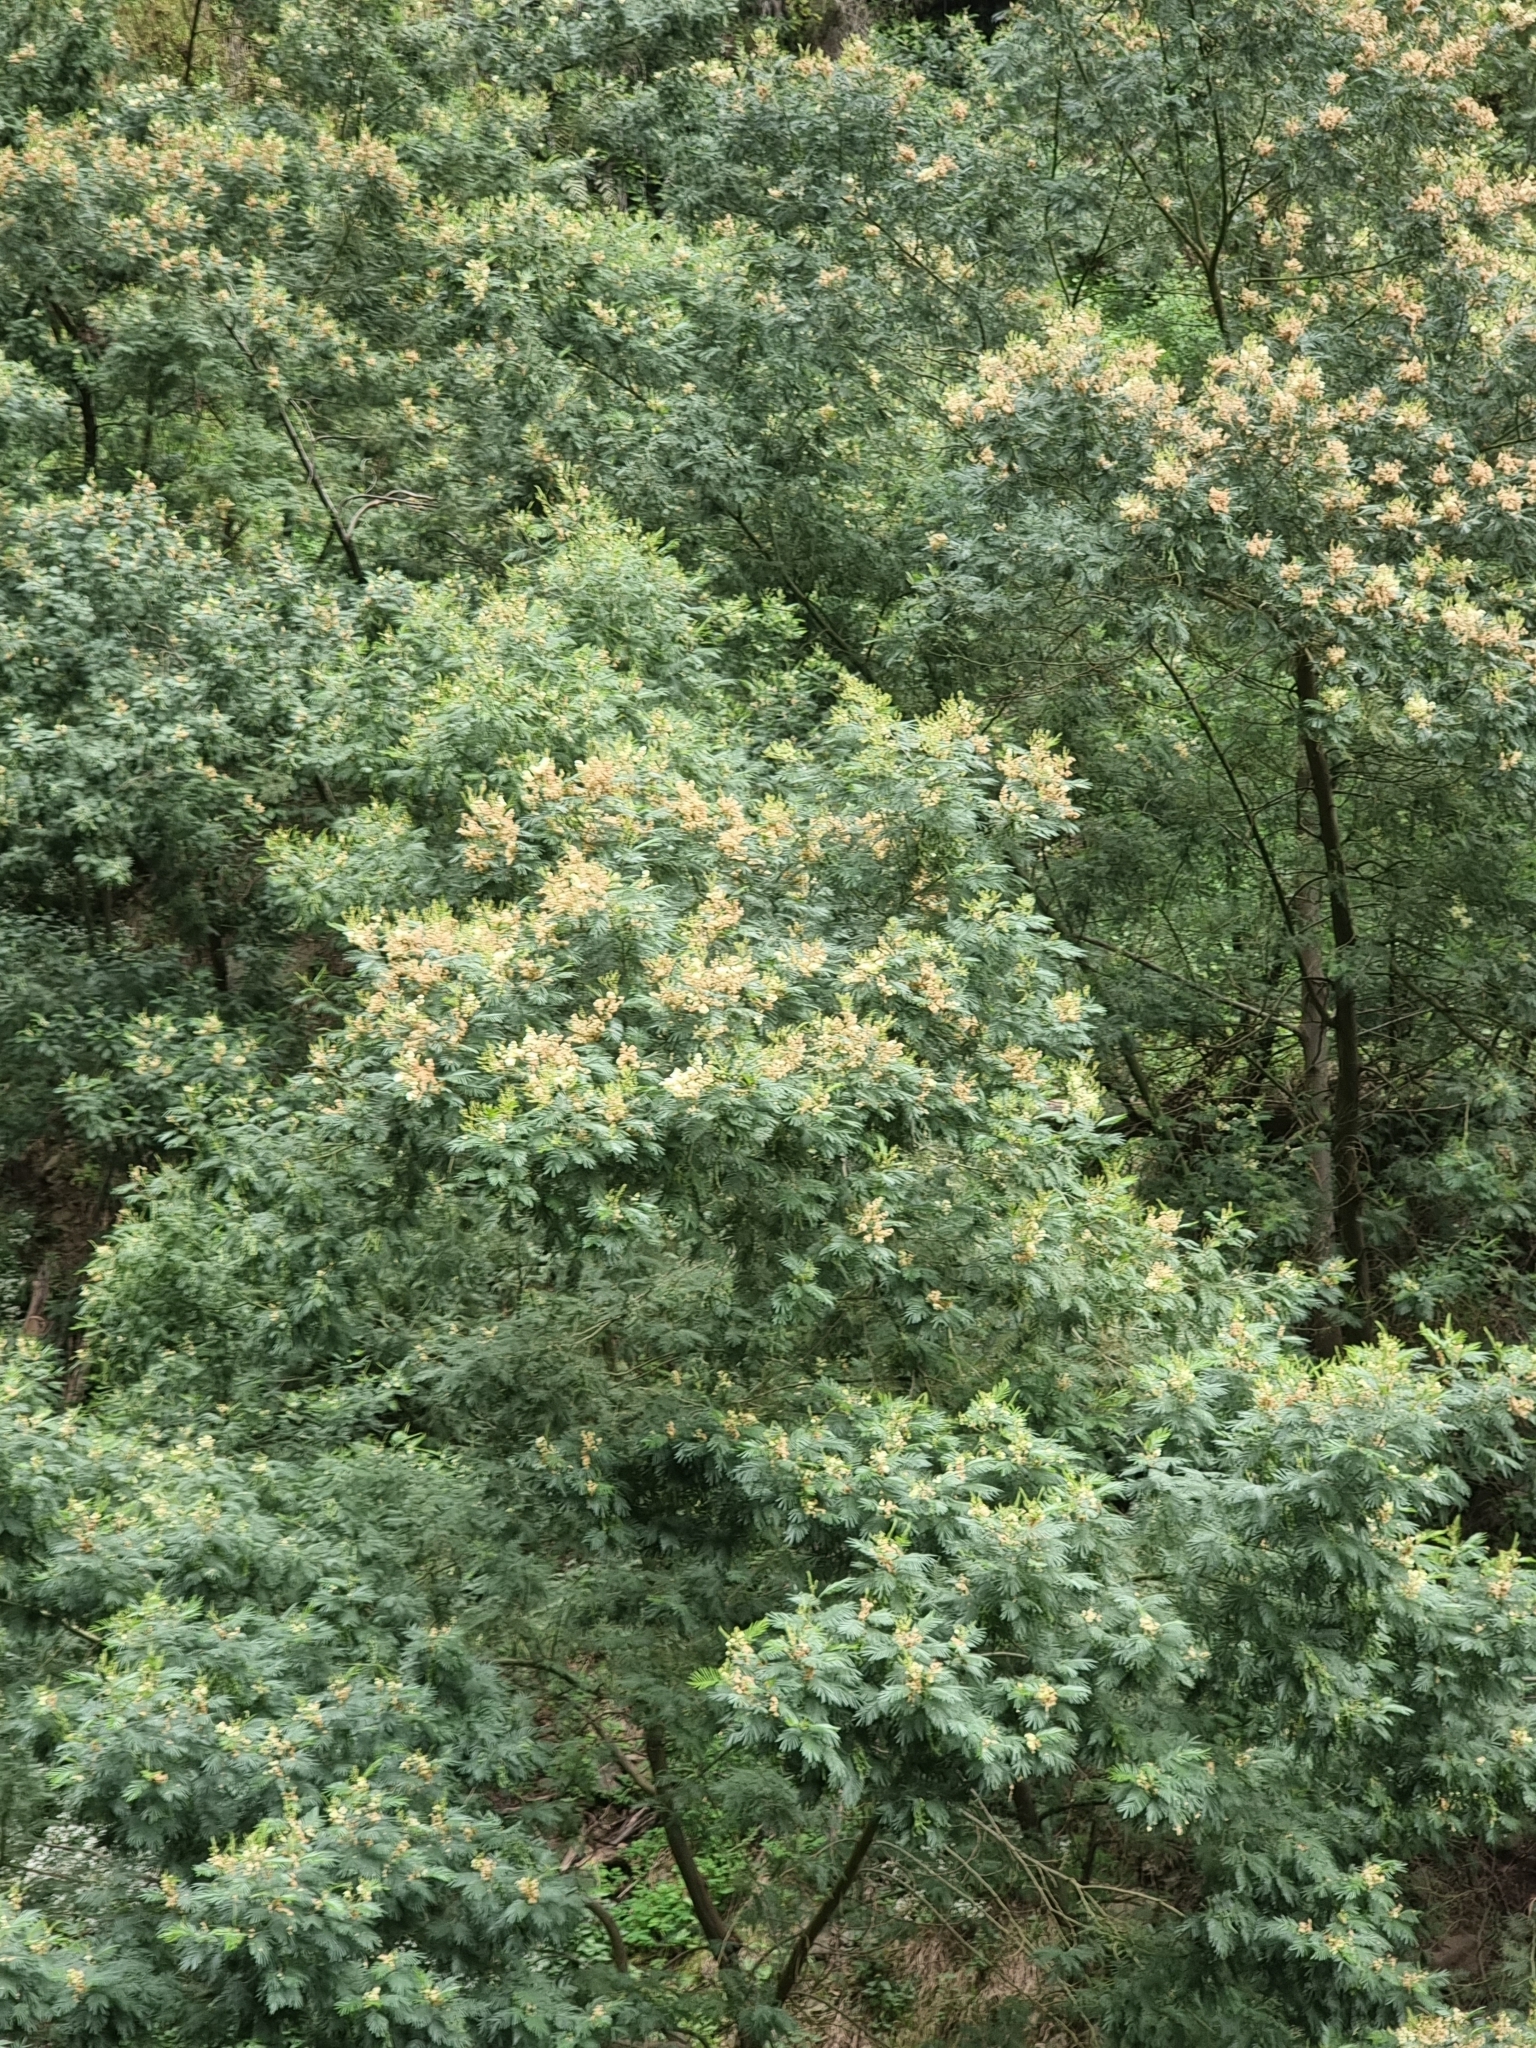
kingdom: Plantae
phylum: Tracheophyta
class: Magnoliopsida
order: Fabales
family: Fabaceae
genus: Acacia
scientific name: Acacia mearnsii
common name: Black wattle
